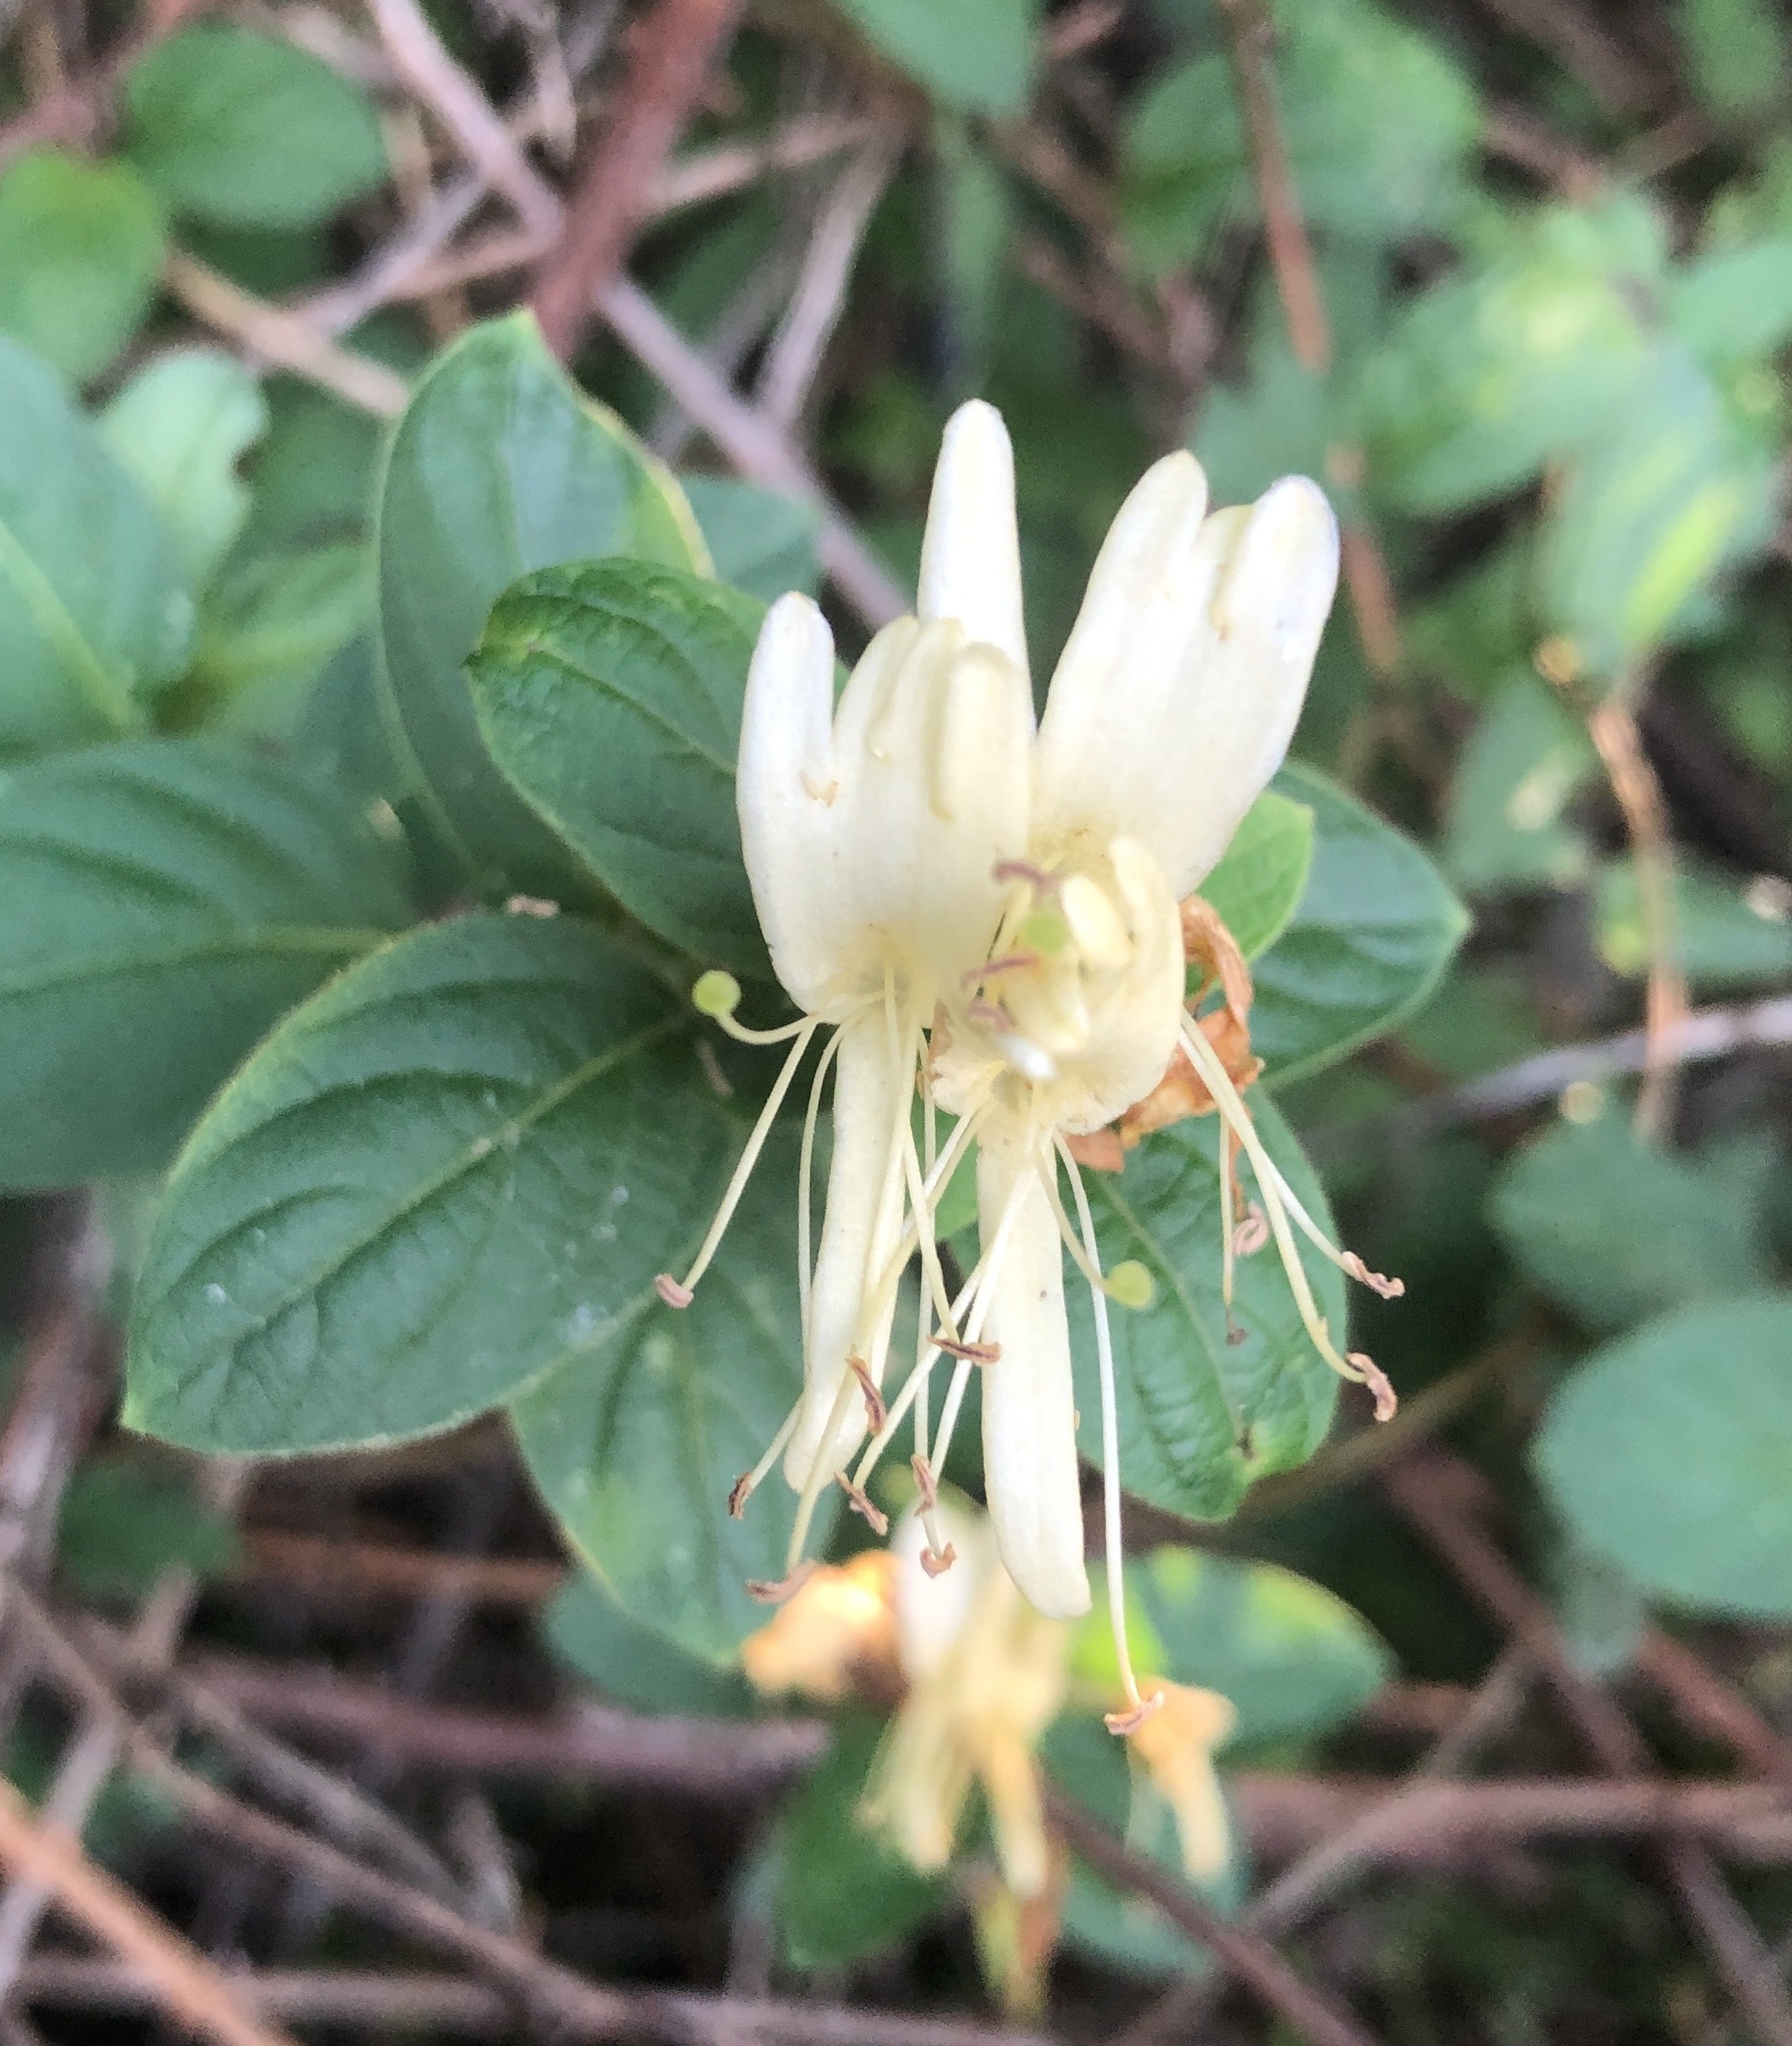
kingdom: Plantae
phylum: Tracheophyta
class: Magnoliopsida
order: Dipsacales
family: Caprifoliaceae
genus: Lonicera
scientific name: Lonicera japonica
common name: Japanese honeysuckle
